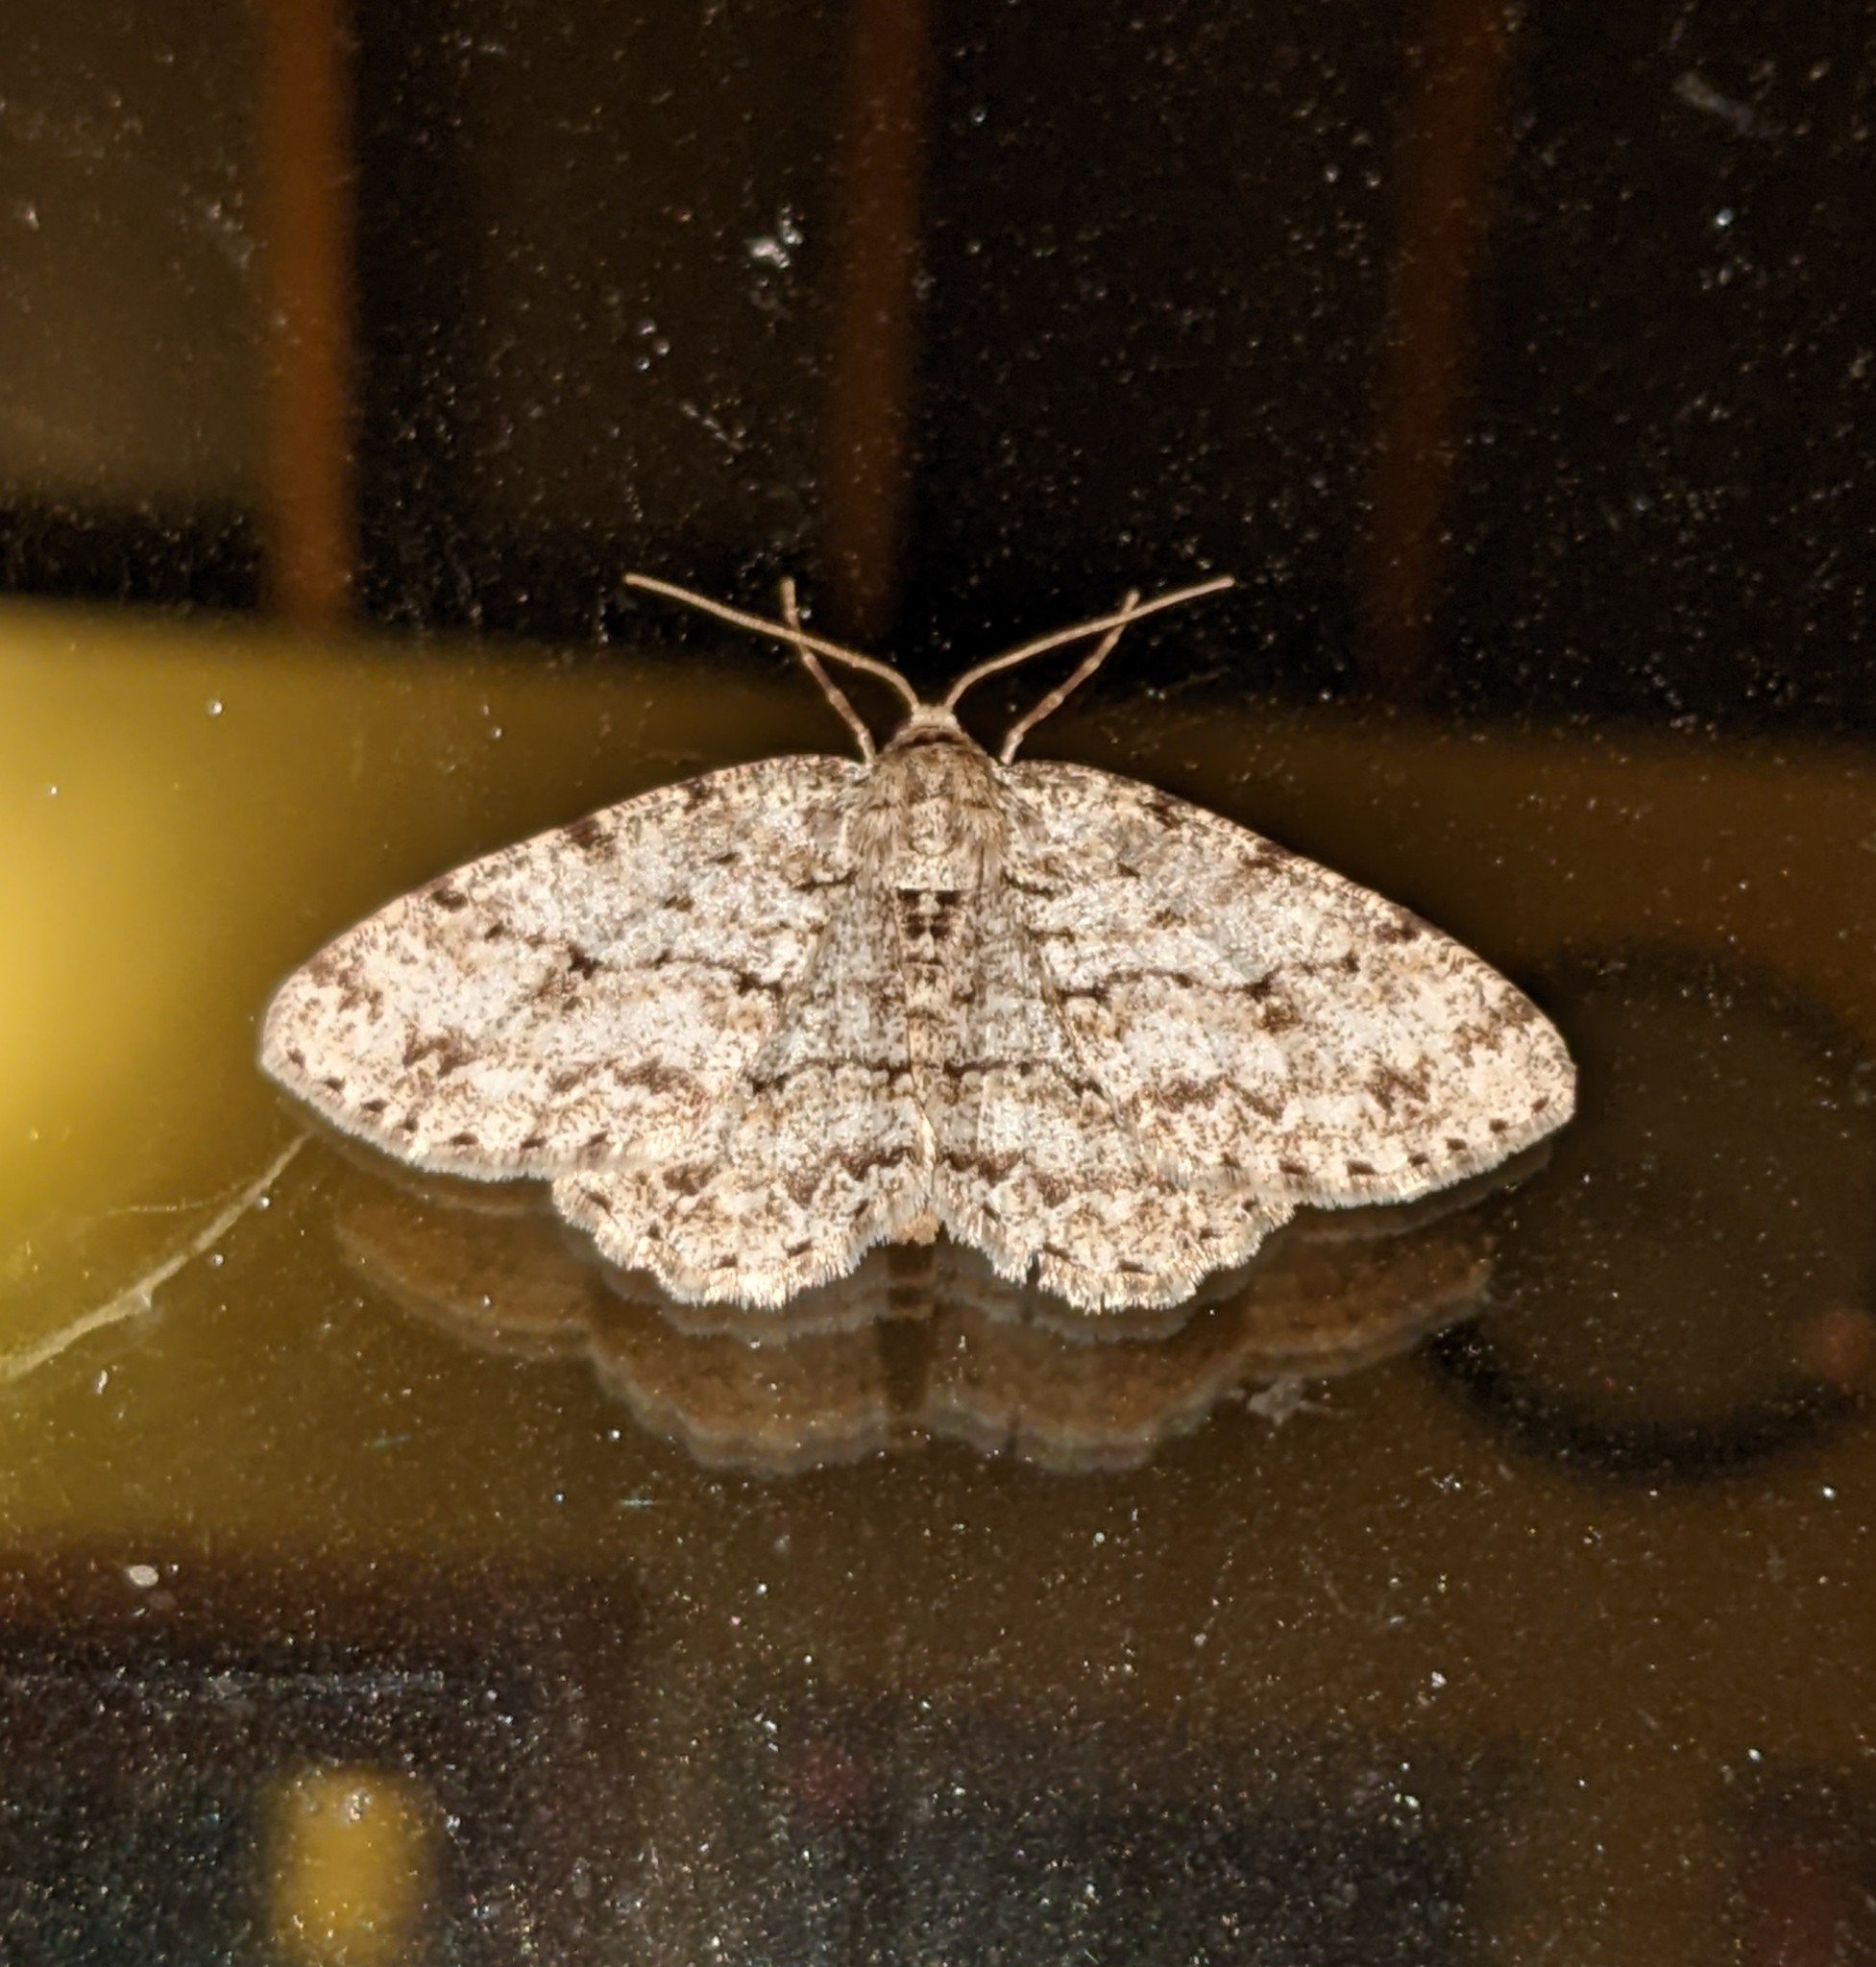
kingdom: Animalia
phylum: Arthropoda
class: Insecta
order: Lepidoptera
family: Geometridae
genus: Ectropis
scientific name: Ectropis crepuscularia
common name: Engrailed
